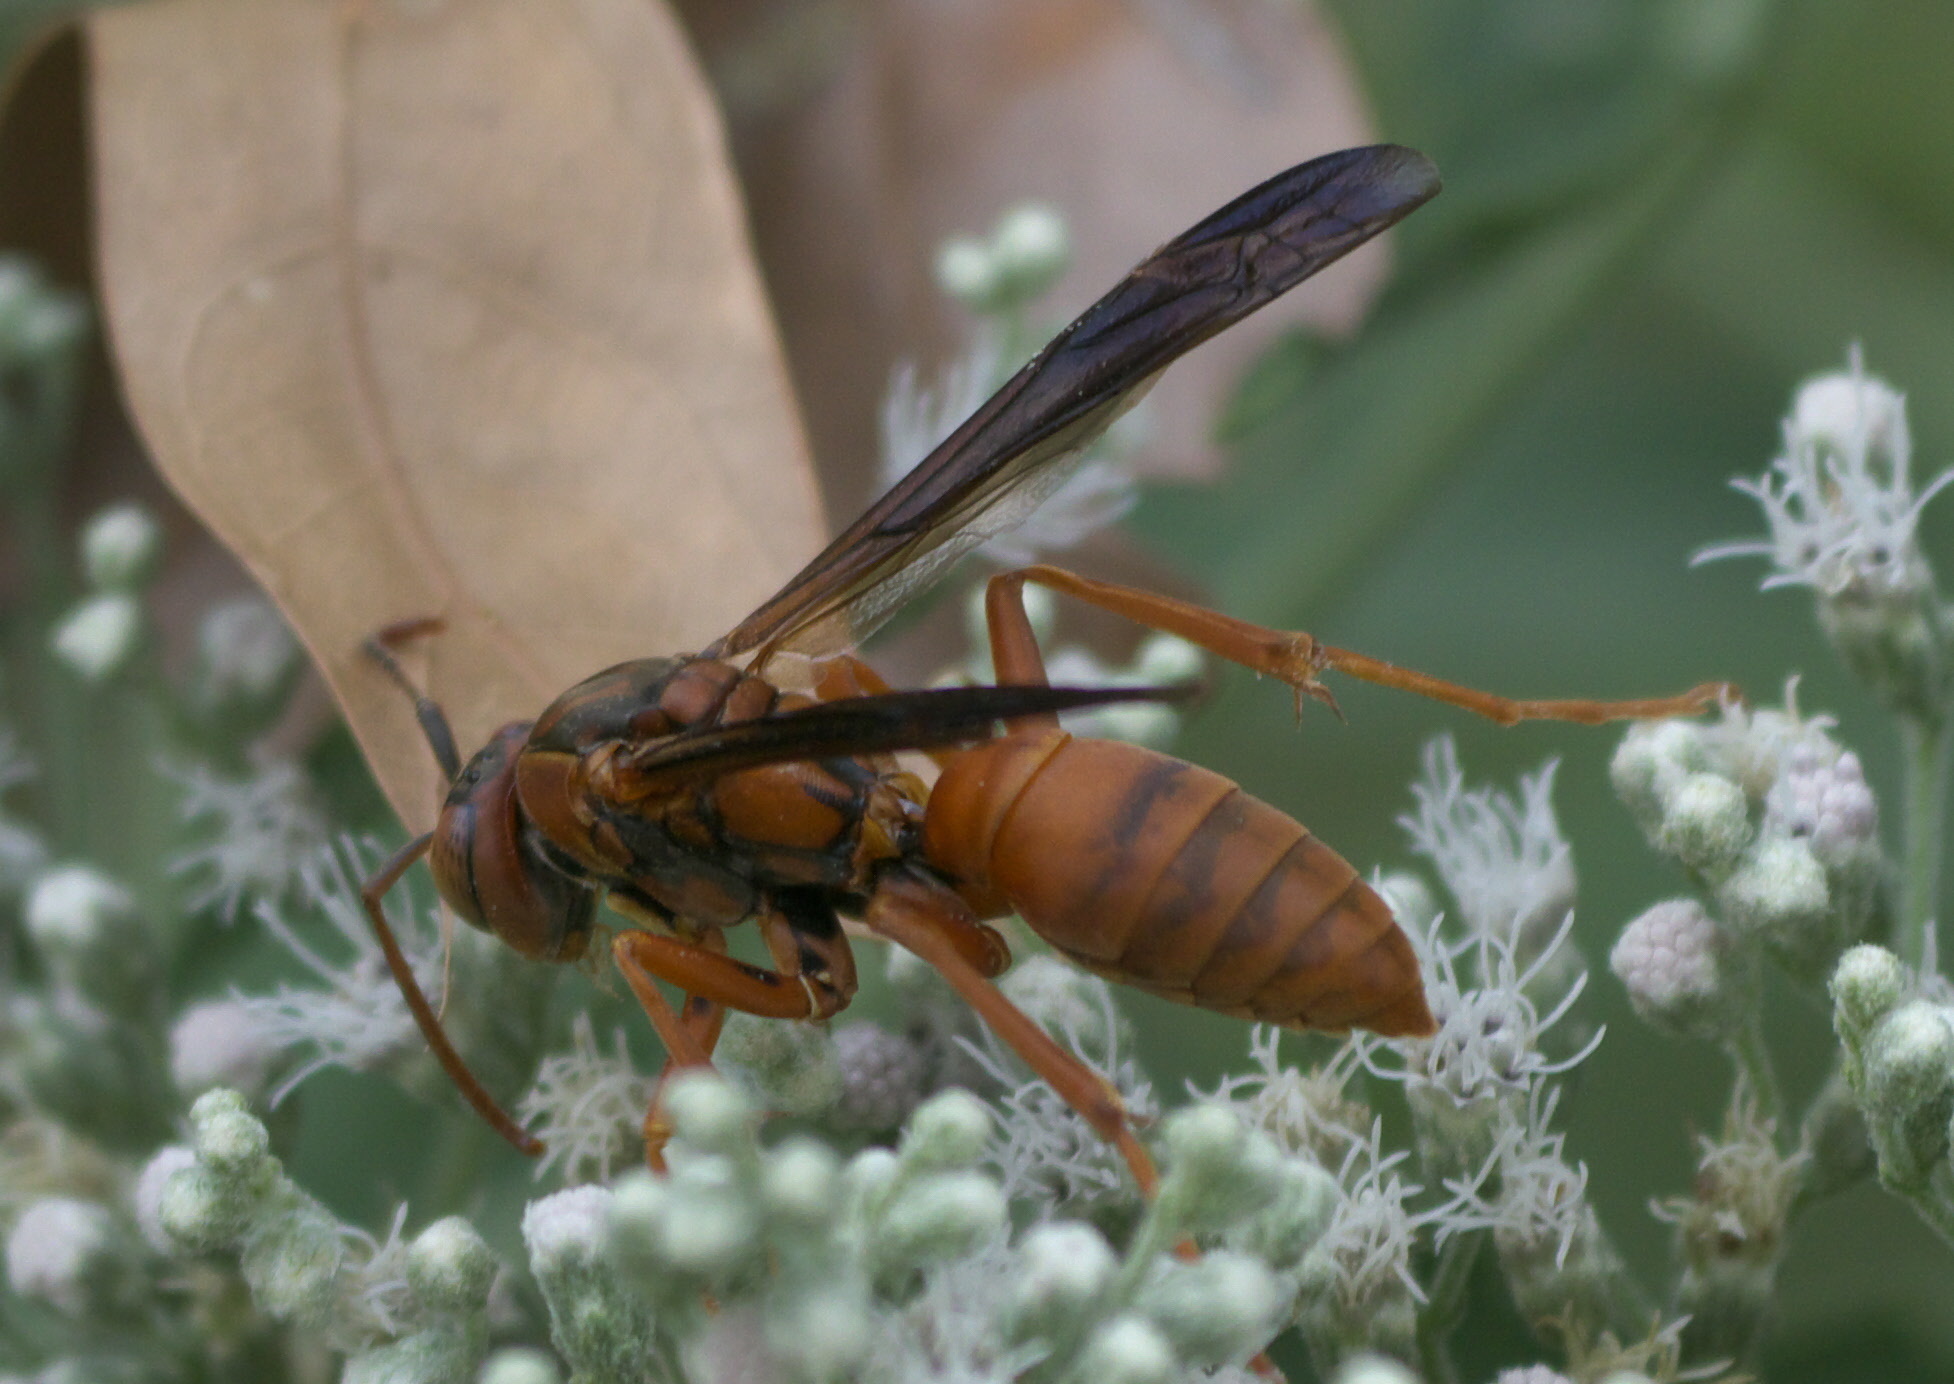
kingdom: Animalia
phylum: Arthropoda
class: Insecta
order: Hymenoptera
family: Eumenidae
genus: Polistes
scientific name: Polistes carolina
